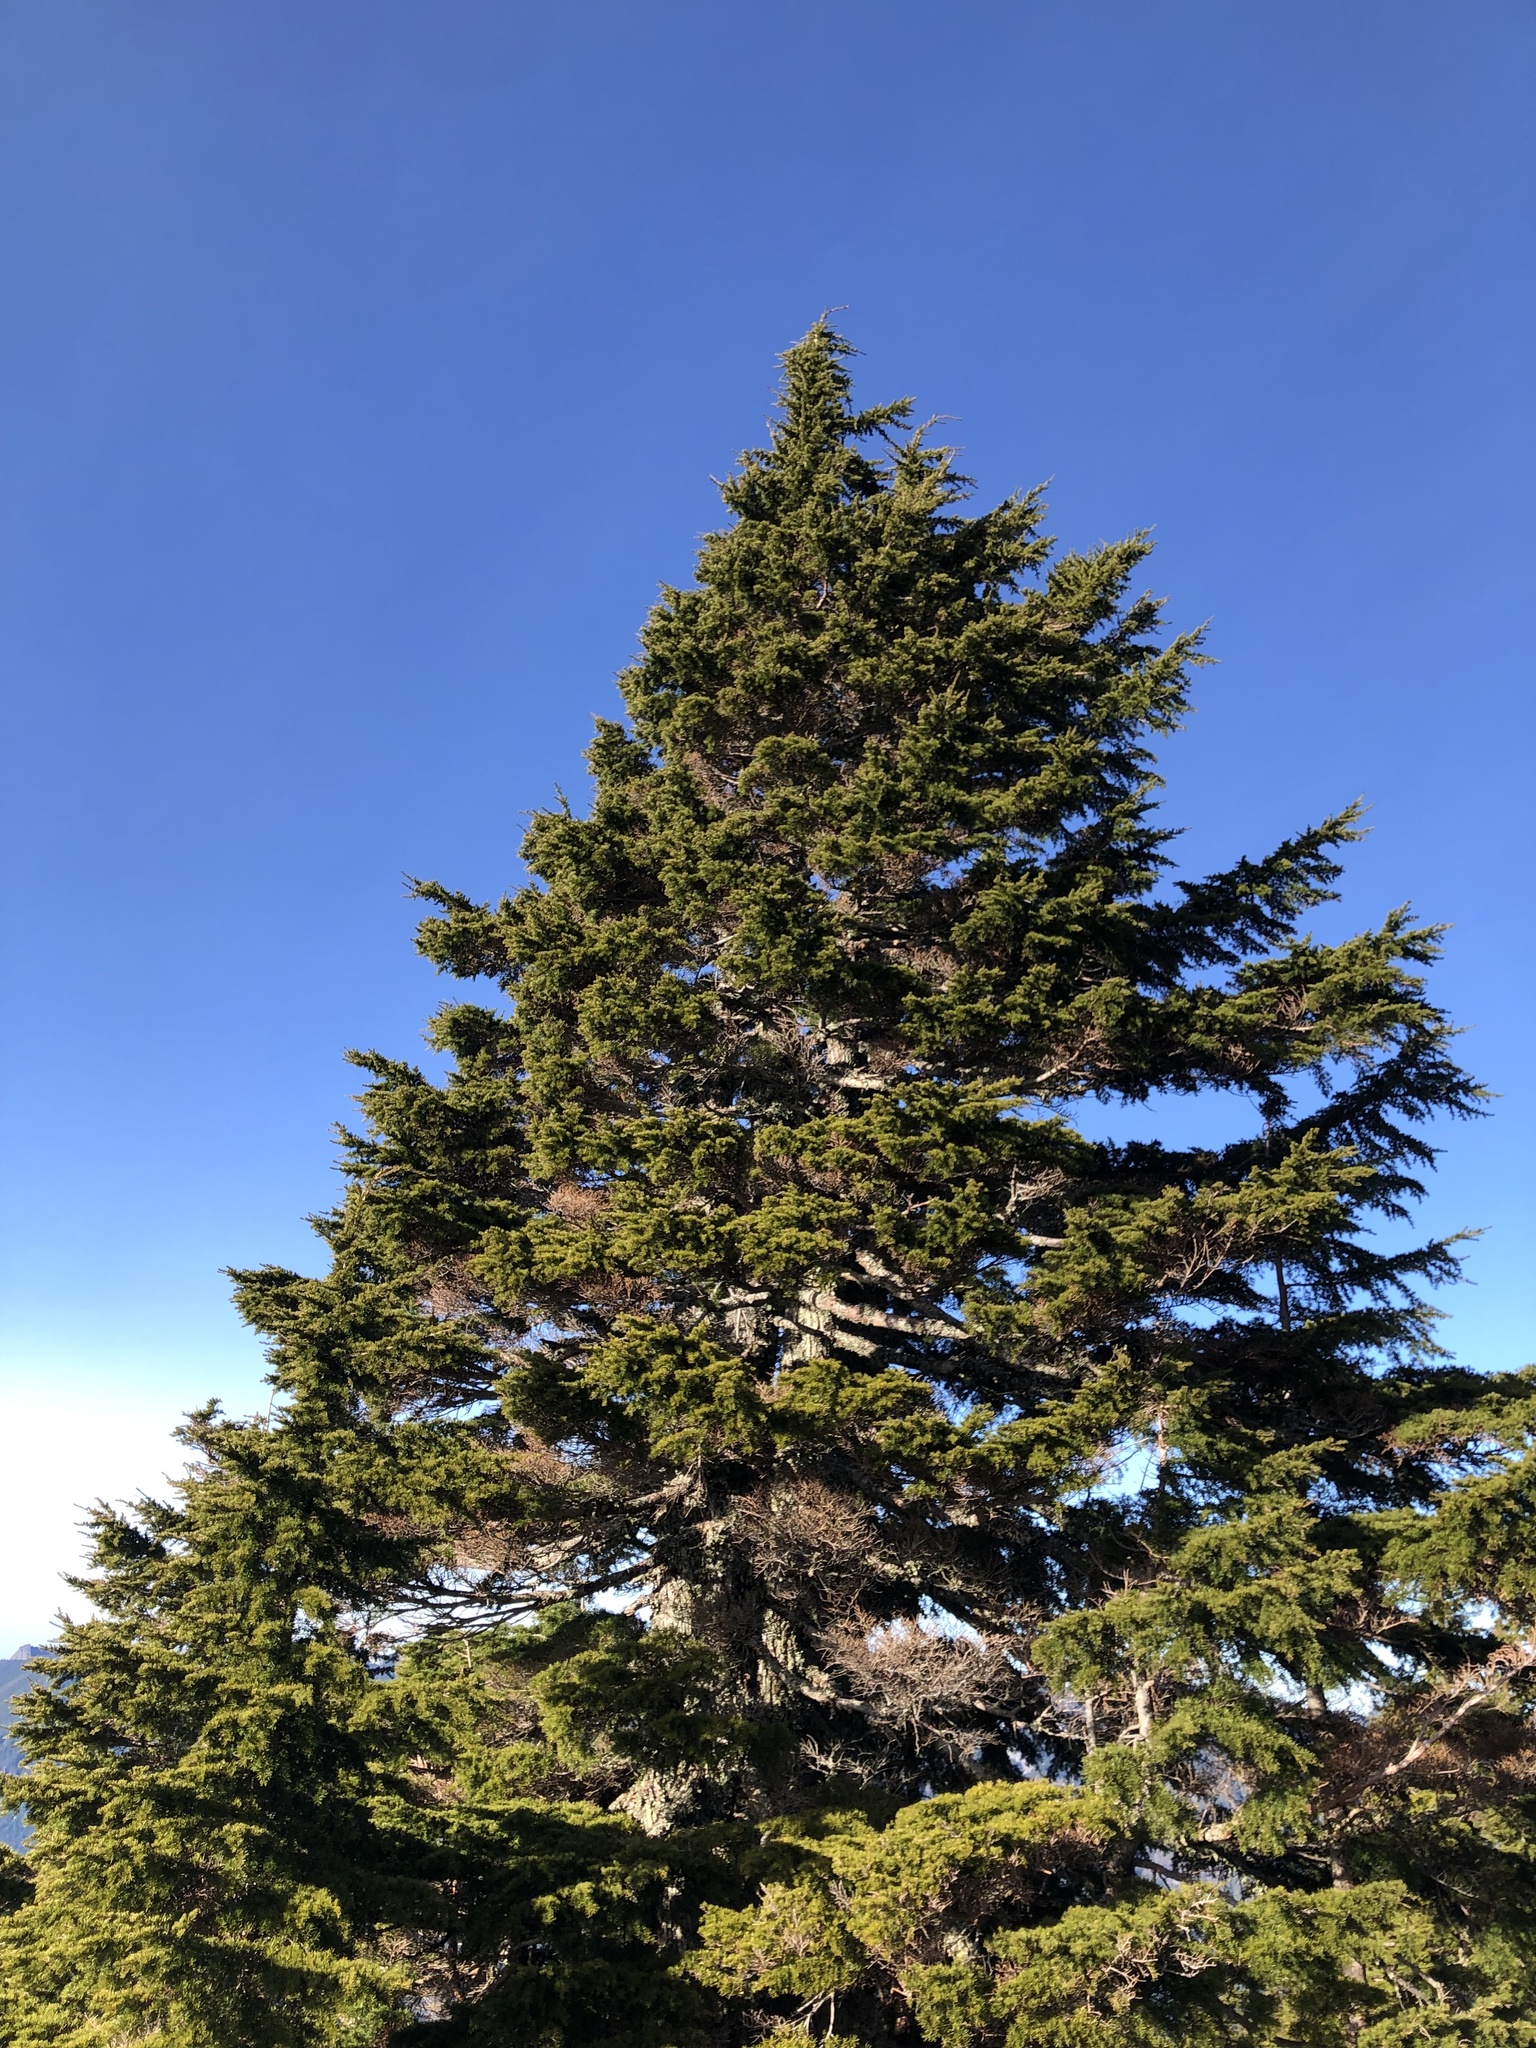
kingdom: Plantae
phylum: Tracheophyta
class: Pinopsida
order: Pinales
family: Pinaceae
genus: Tsuga
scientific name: Tsuga mertensiana
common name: Mountain hemlock
